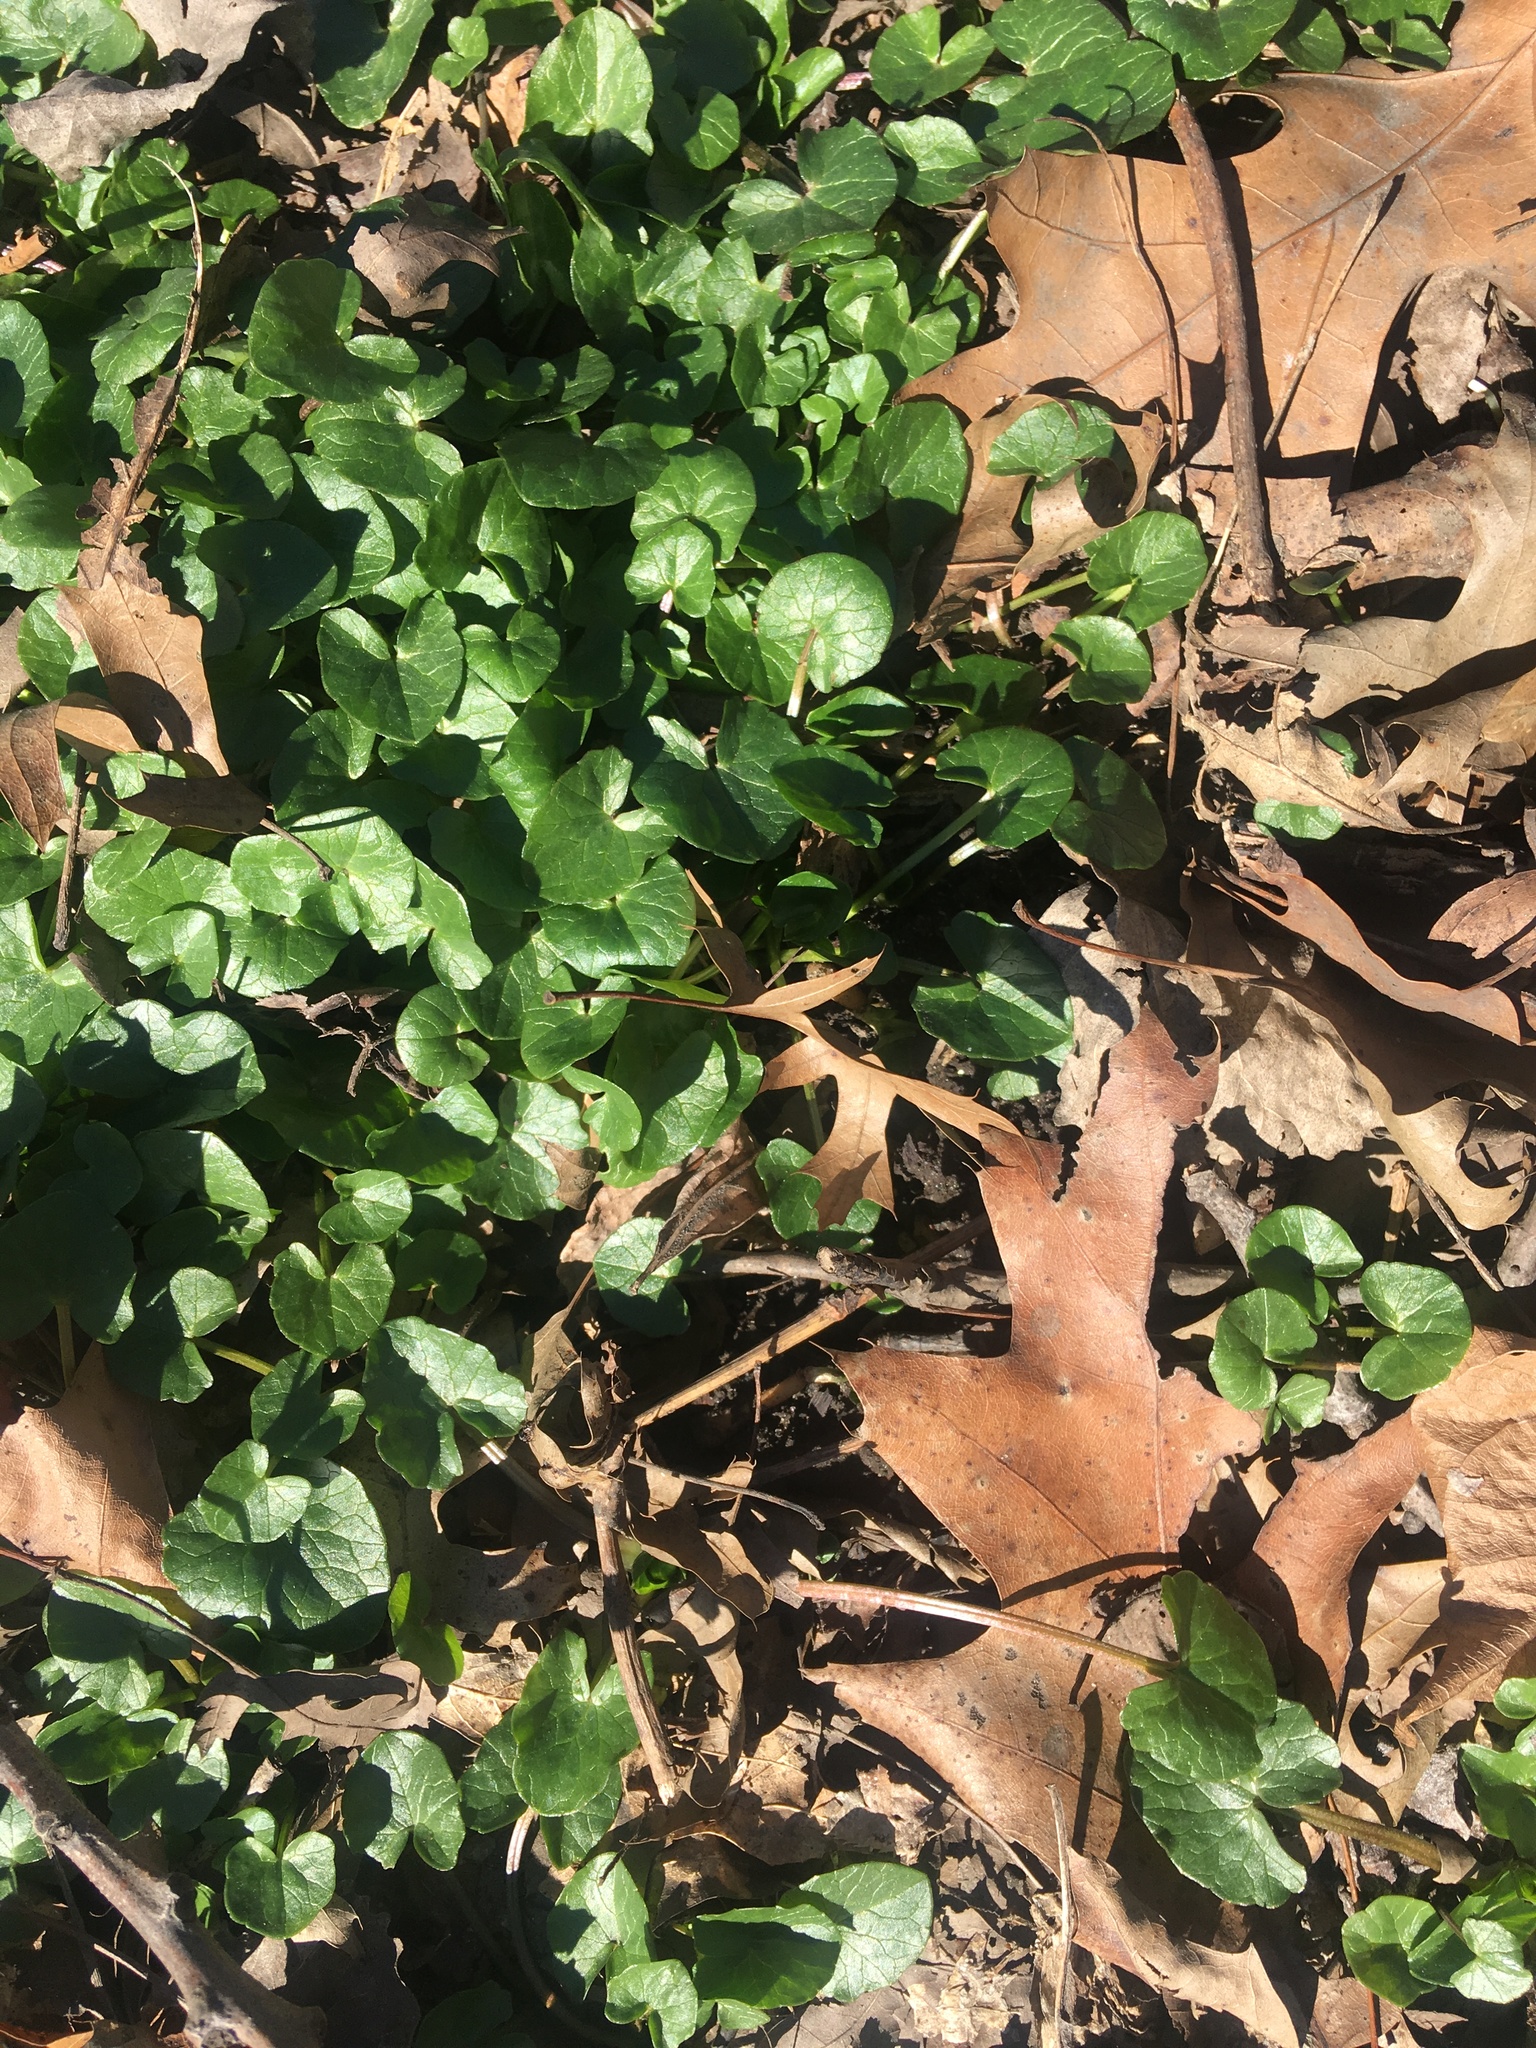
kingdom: Plantae
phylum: Tracheophyta
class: Magnoliopsida
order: Ranunculales
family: Ranunculaceae
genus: Ficaria
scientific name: Ficaria verna
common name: Lesser celandine
